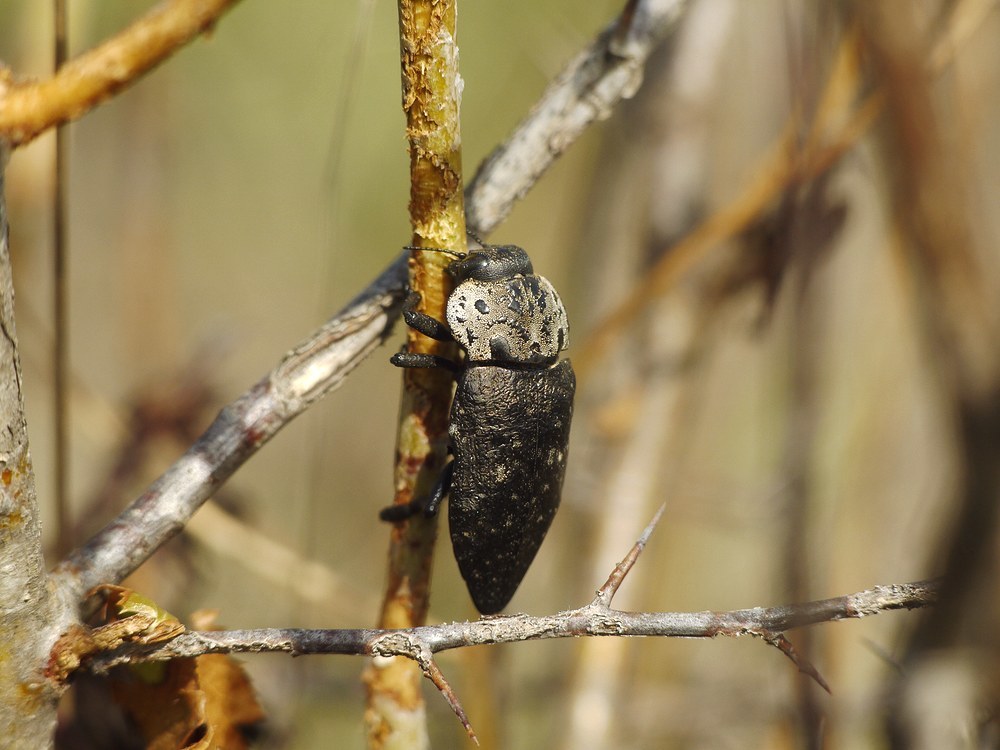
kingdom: Animalia
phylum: Arthropoda
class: Insecta
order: Coleoptera
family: Buprestidae
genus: Capnodis
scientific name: Capnodis tenebrionis
